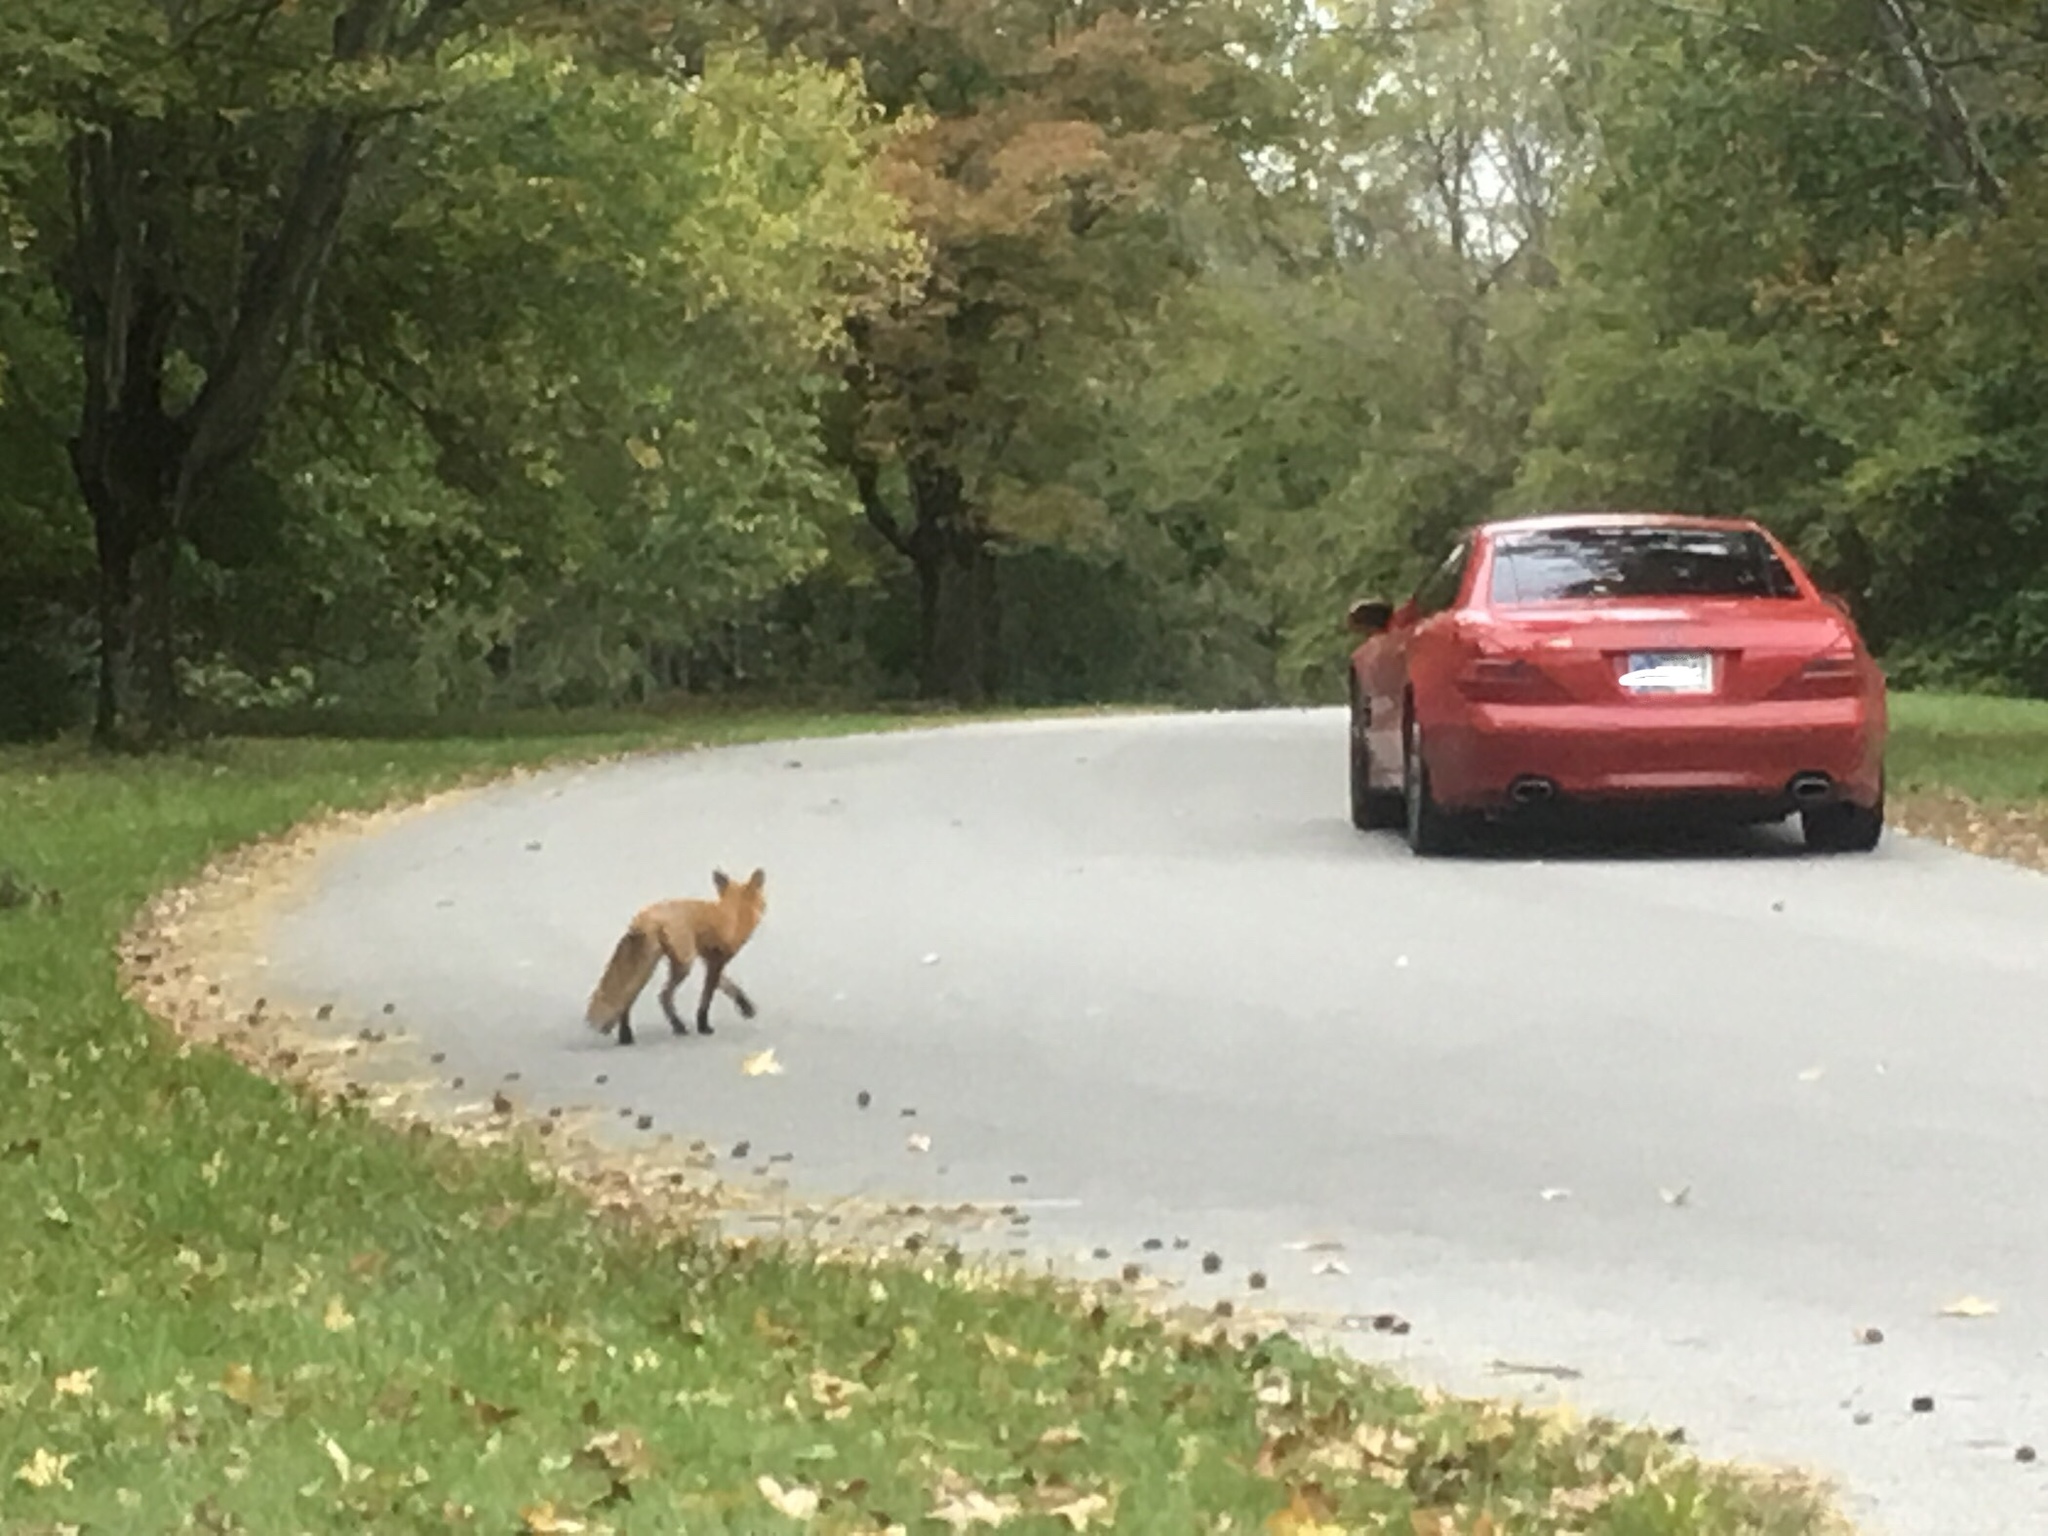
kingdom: Animalia
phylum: Chordata
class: Mammalia
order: Carnivora
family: Canidae
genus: Vulpes
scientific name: Vulpes vulpes
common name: Red fox
